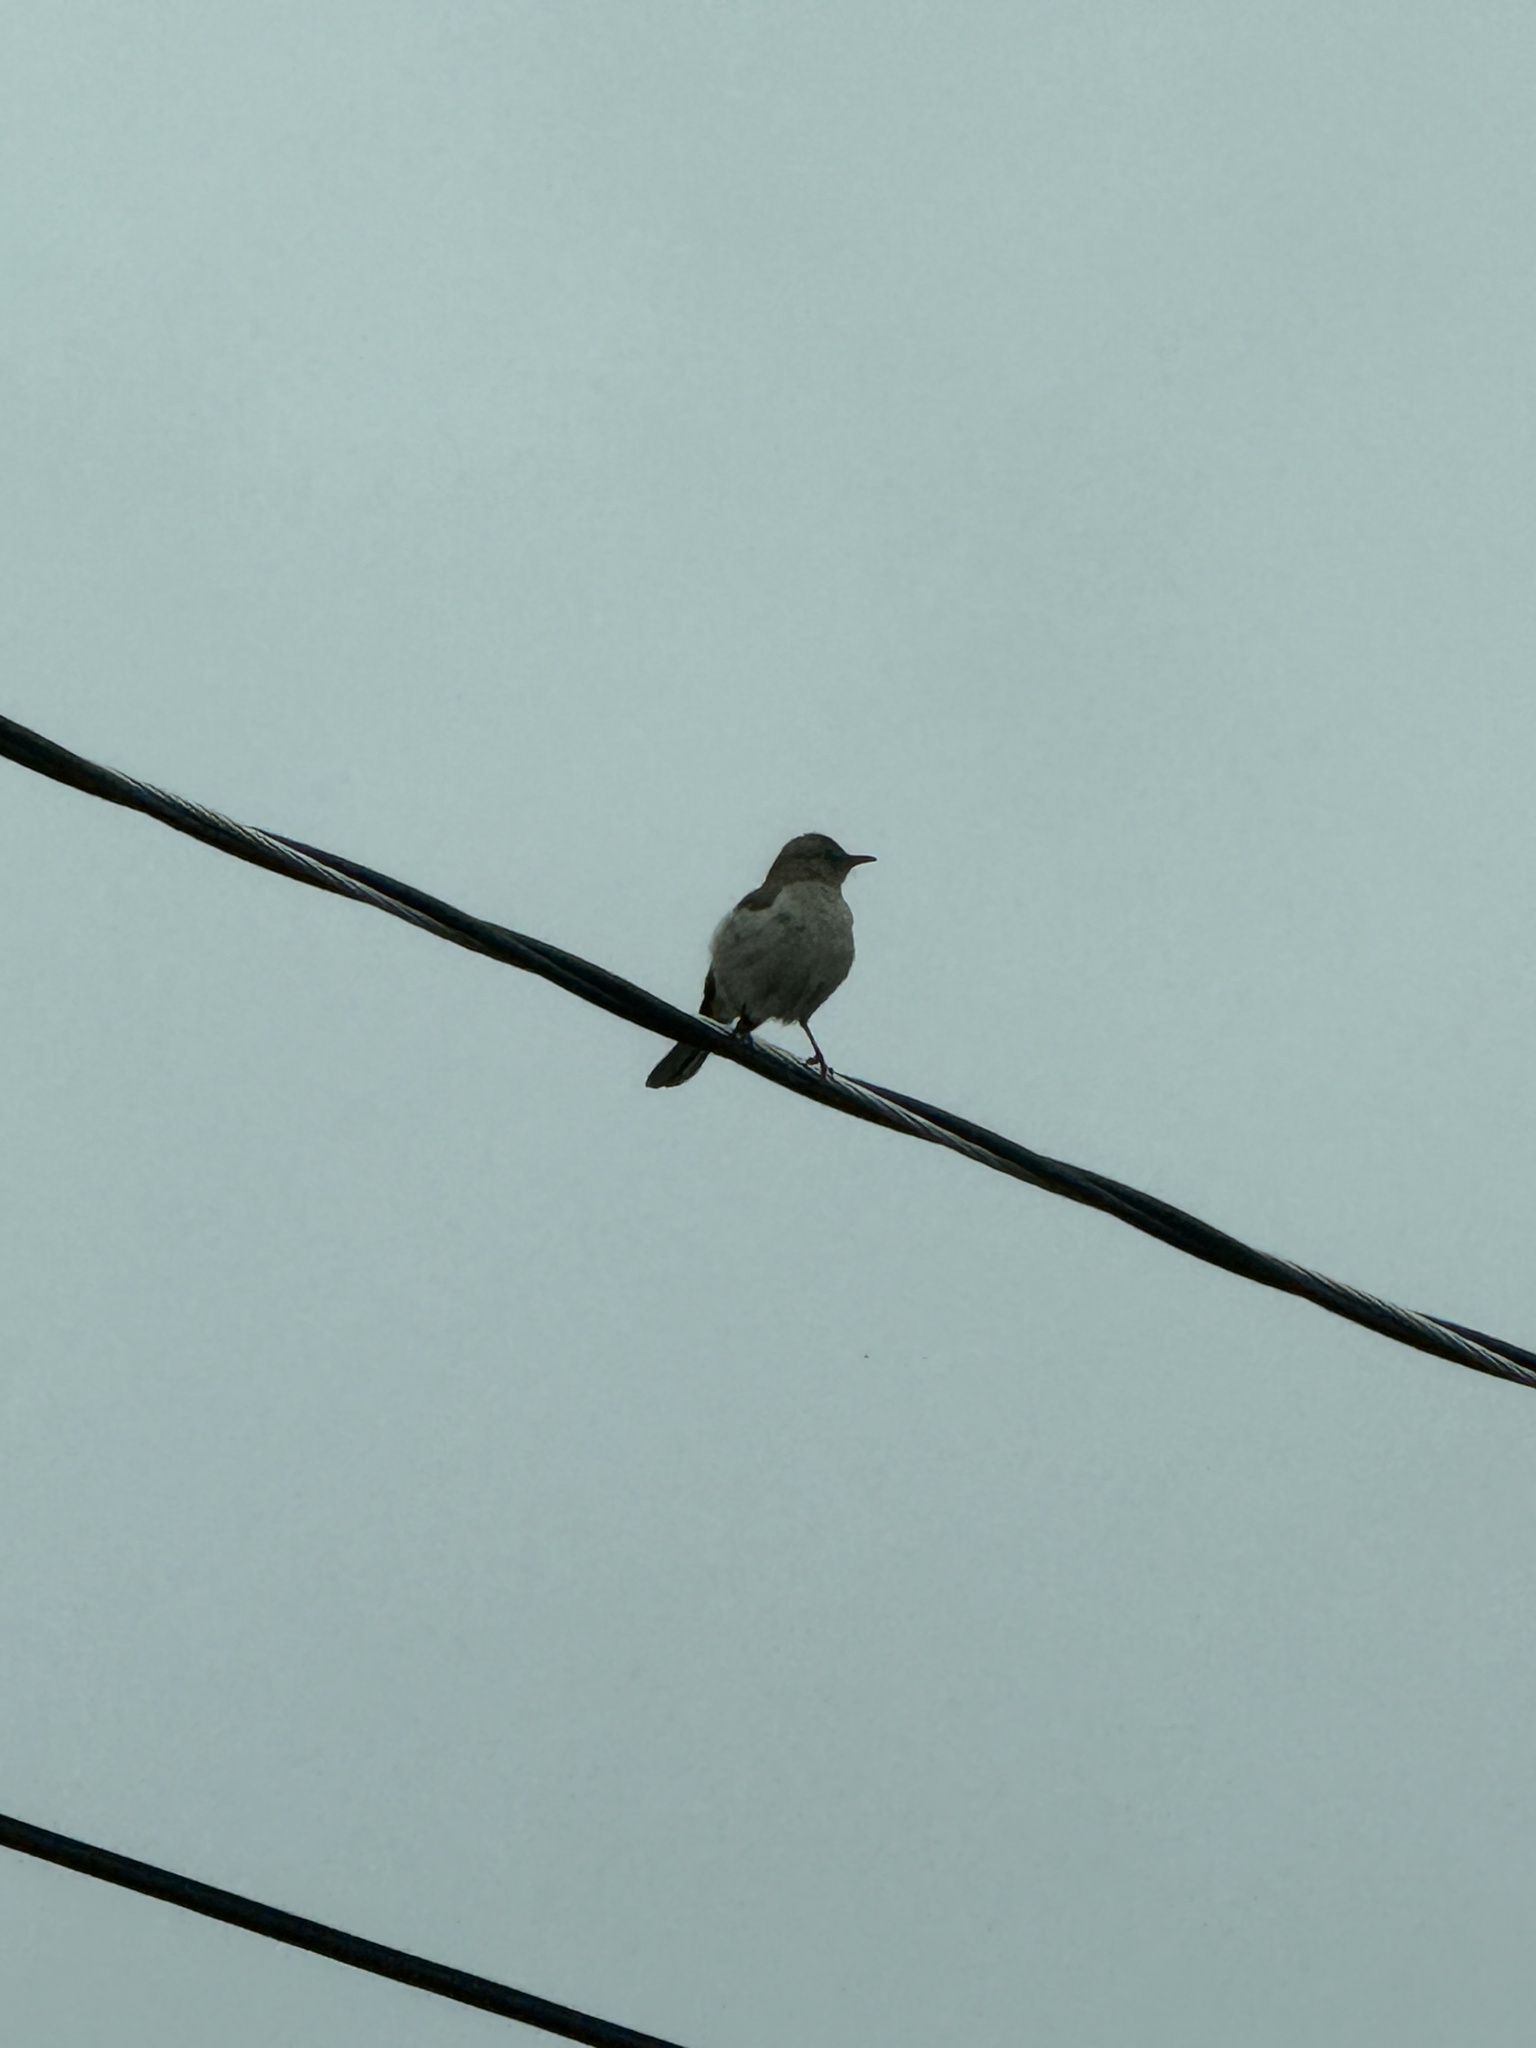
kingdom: Animalia
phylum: Chordata
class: Aves
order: Passeriformes
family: Mimidae
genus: Mimus
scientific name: Mimus polyglottos
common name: Northern mockingbird
